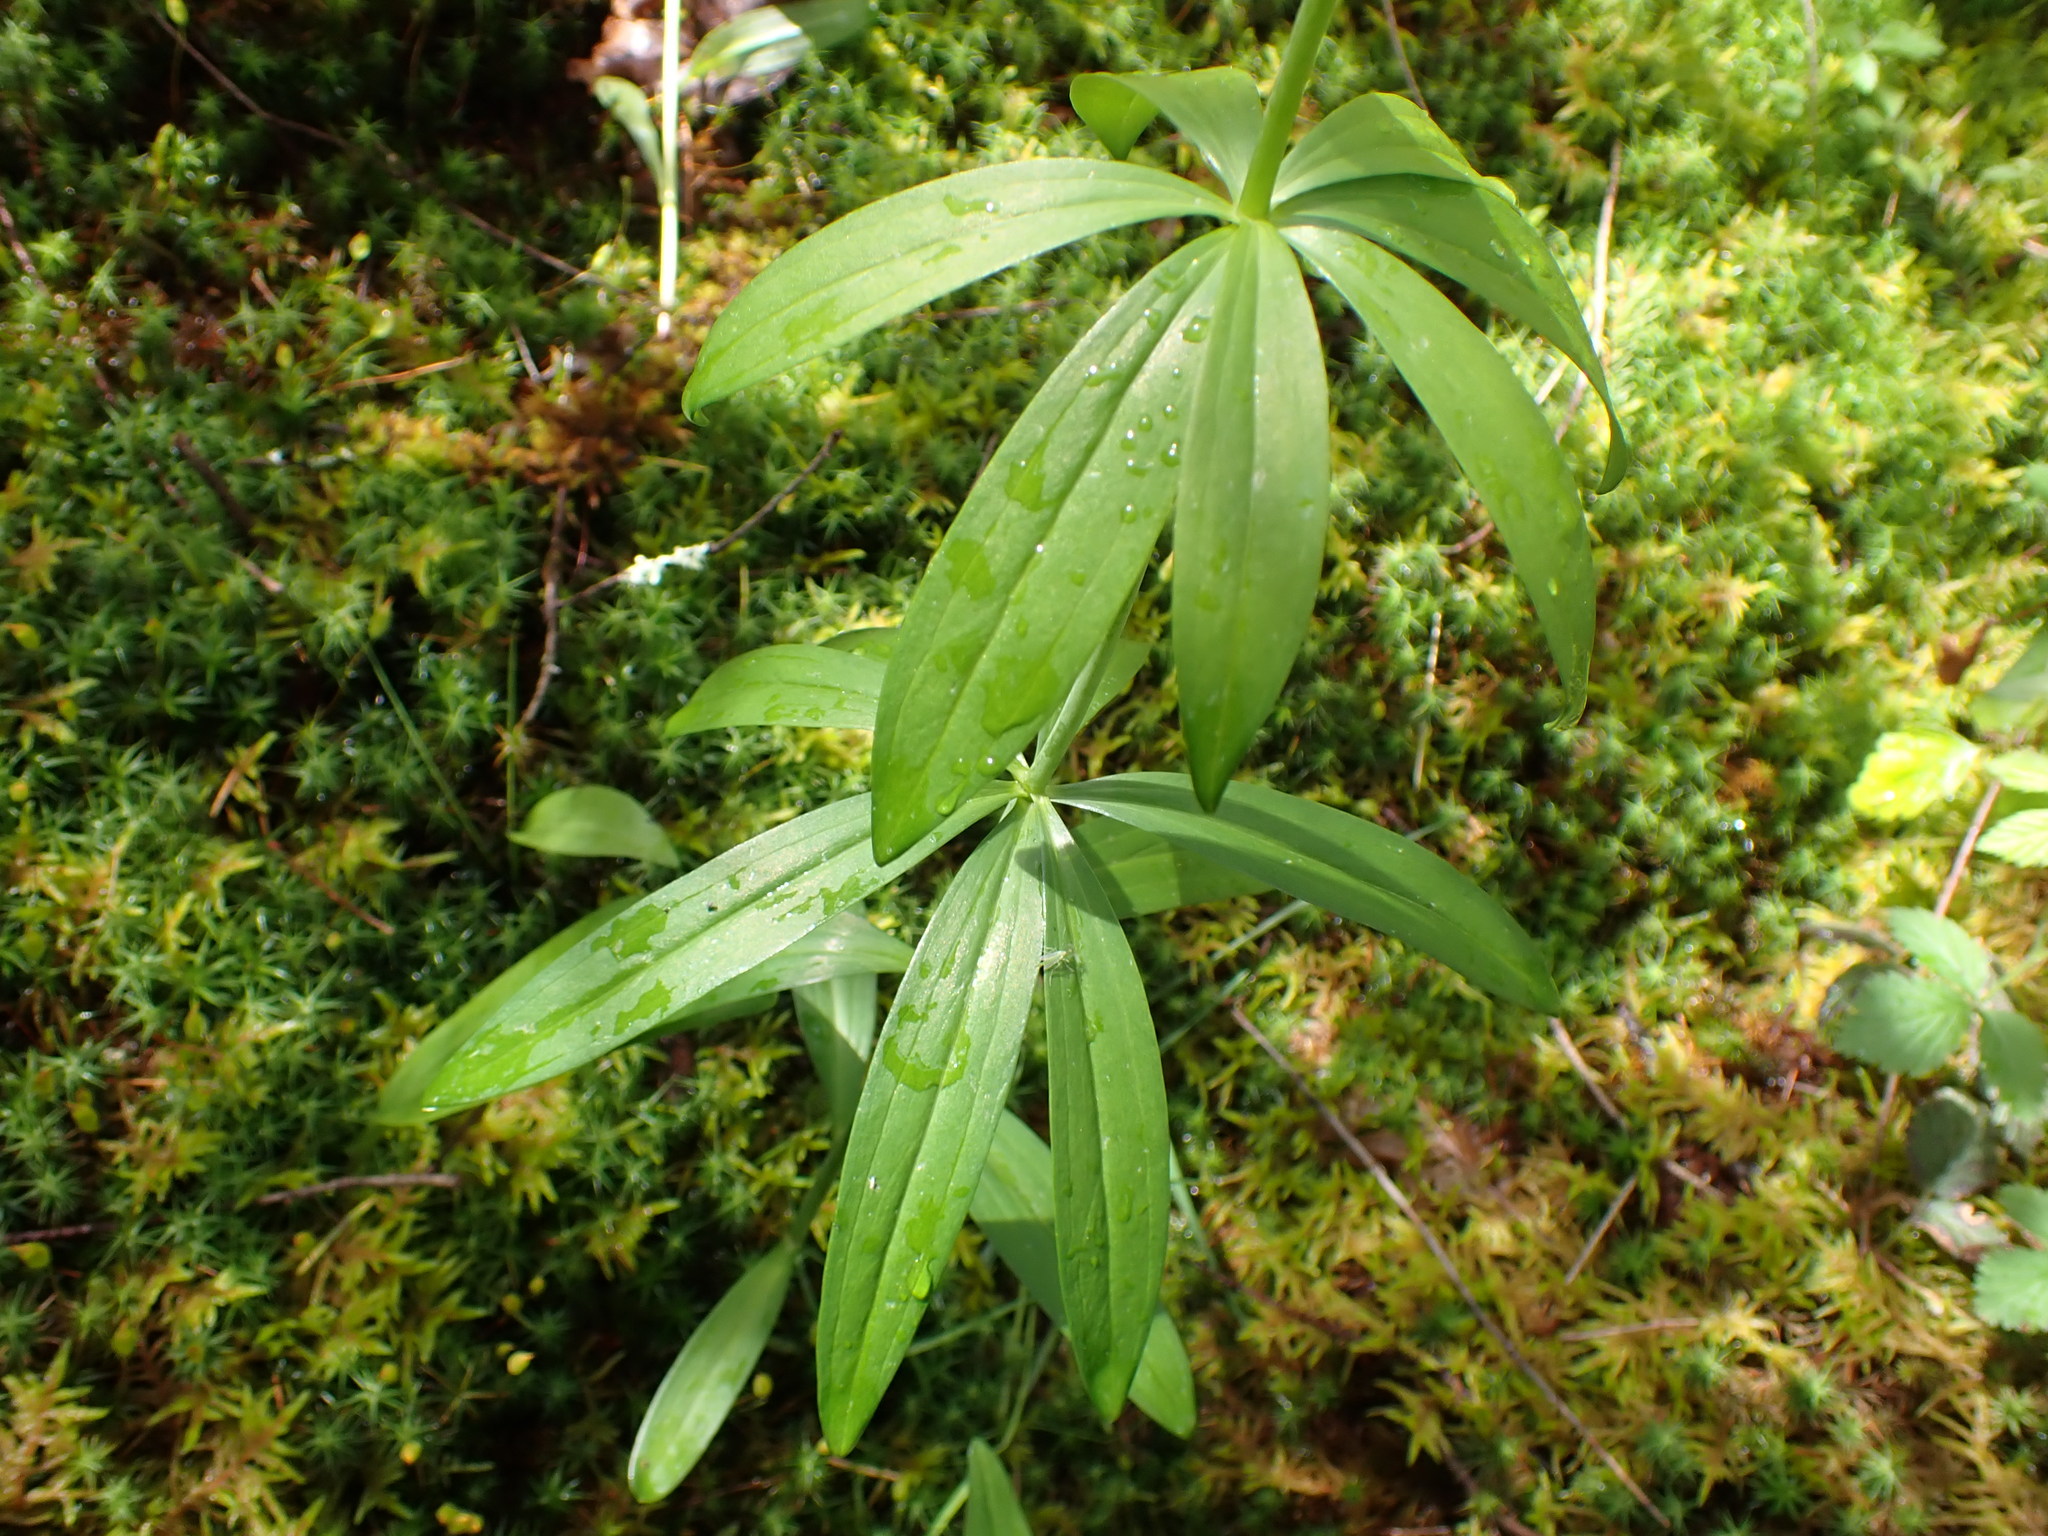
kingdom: Plantae
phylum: Tracheophyta
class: Liliopsida
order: Liliales
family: Liliaceae
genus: Lilium
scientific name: Lilium columbianum
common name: Columbia lily
